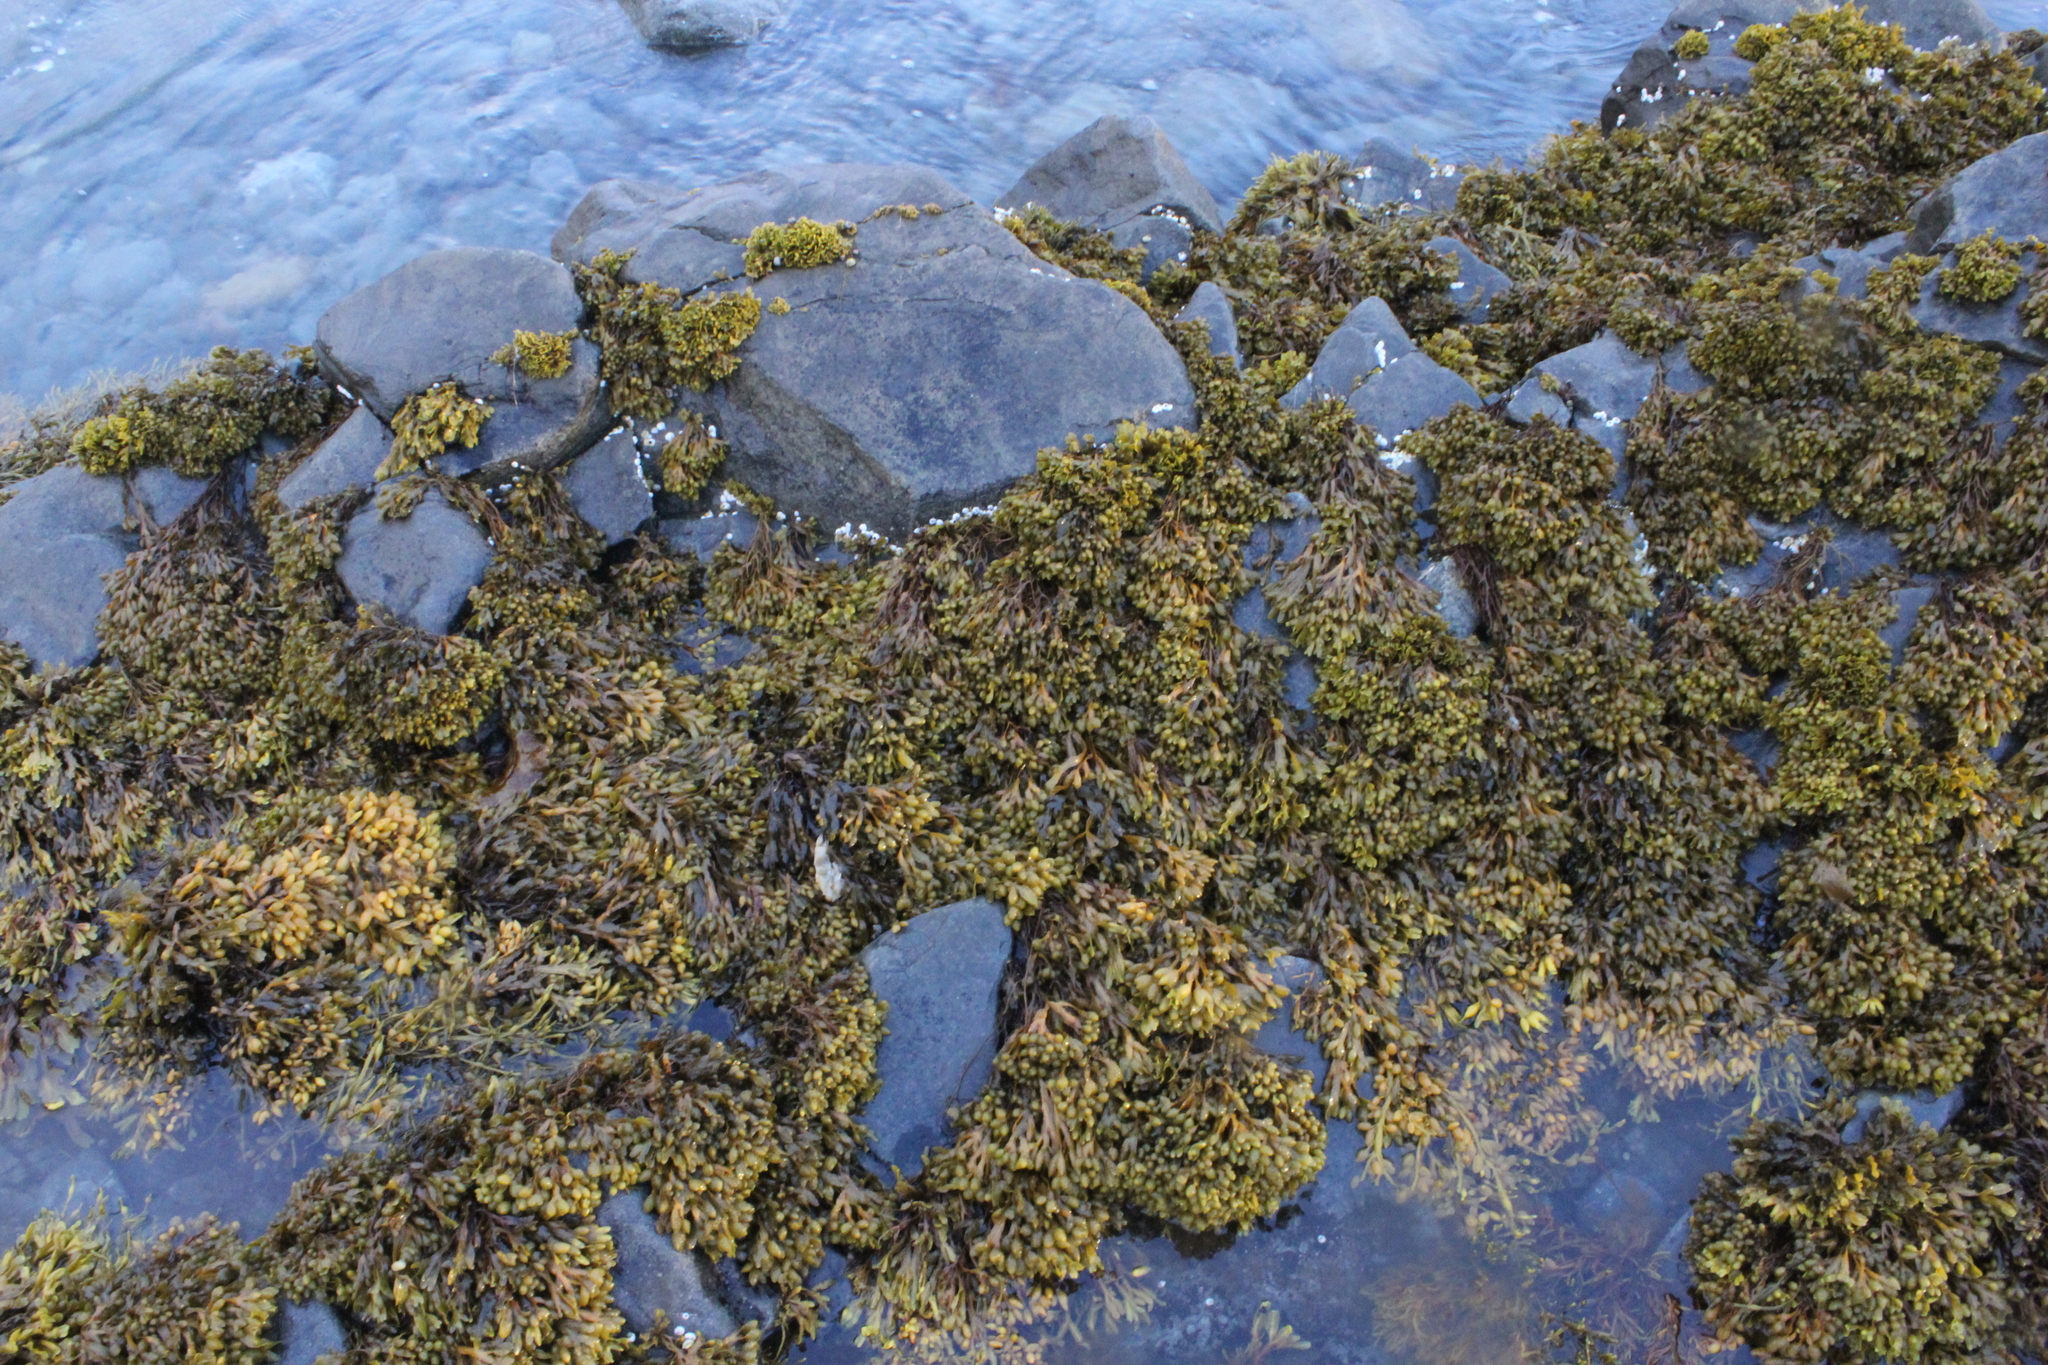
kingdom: Chromista
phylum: Ochrophyta
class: Phaeophyceae
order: Fucales
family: Fucaceae
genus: Fucus
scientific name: Fucus vesiculosus
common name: Bladder wrack
